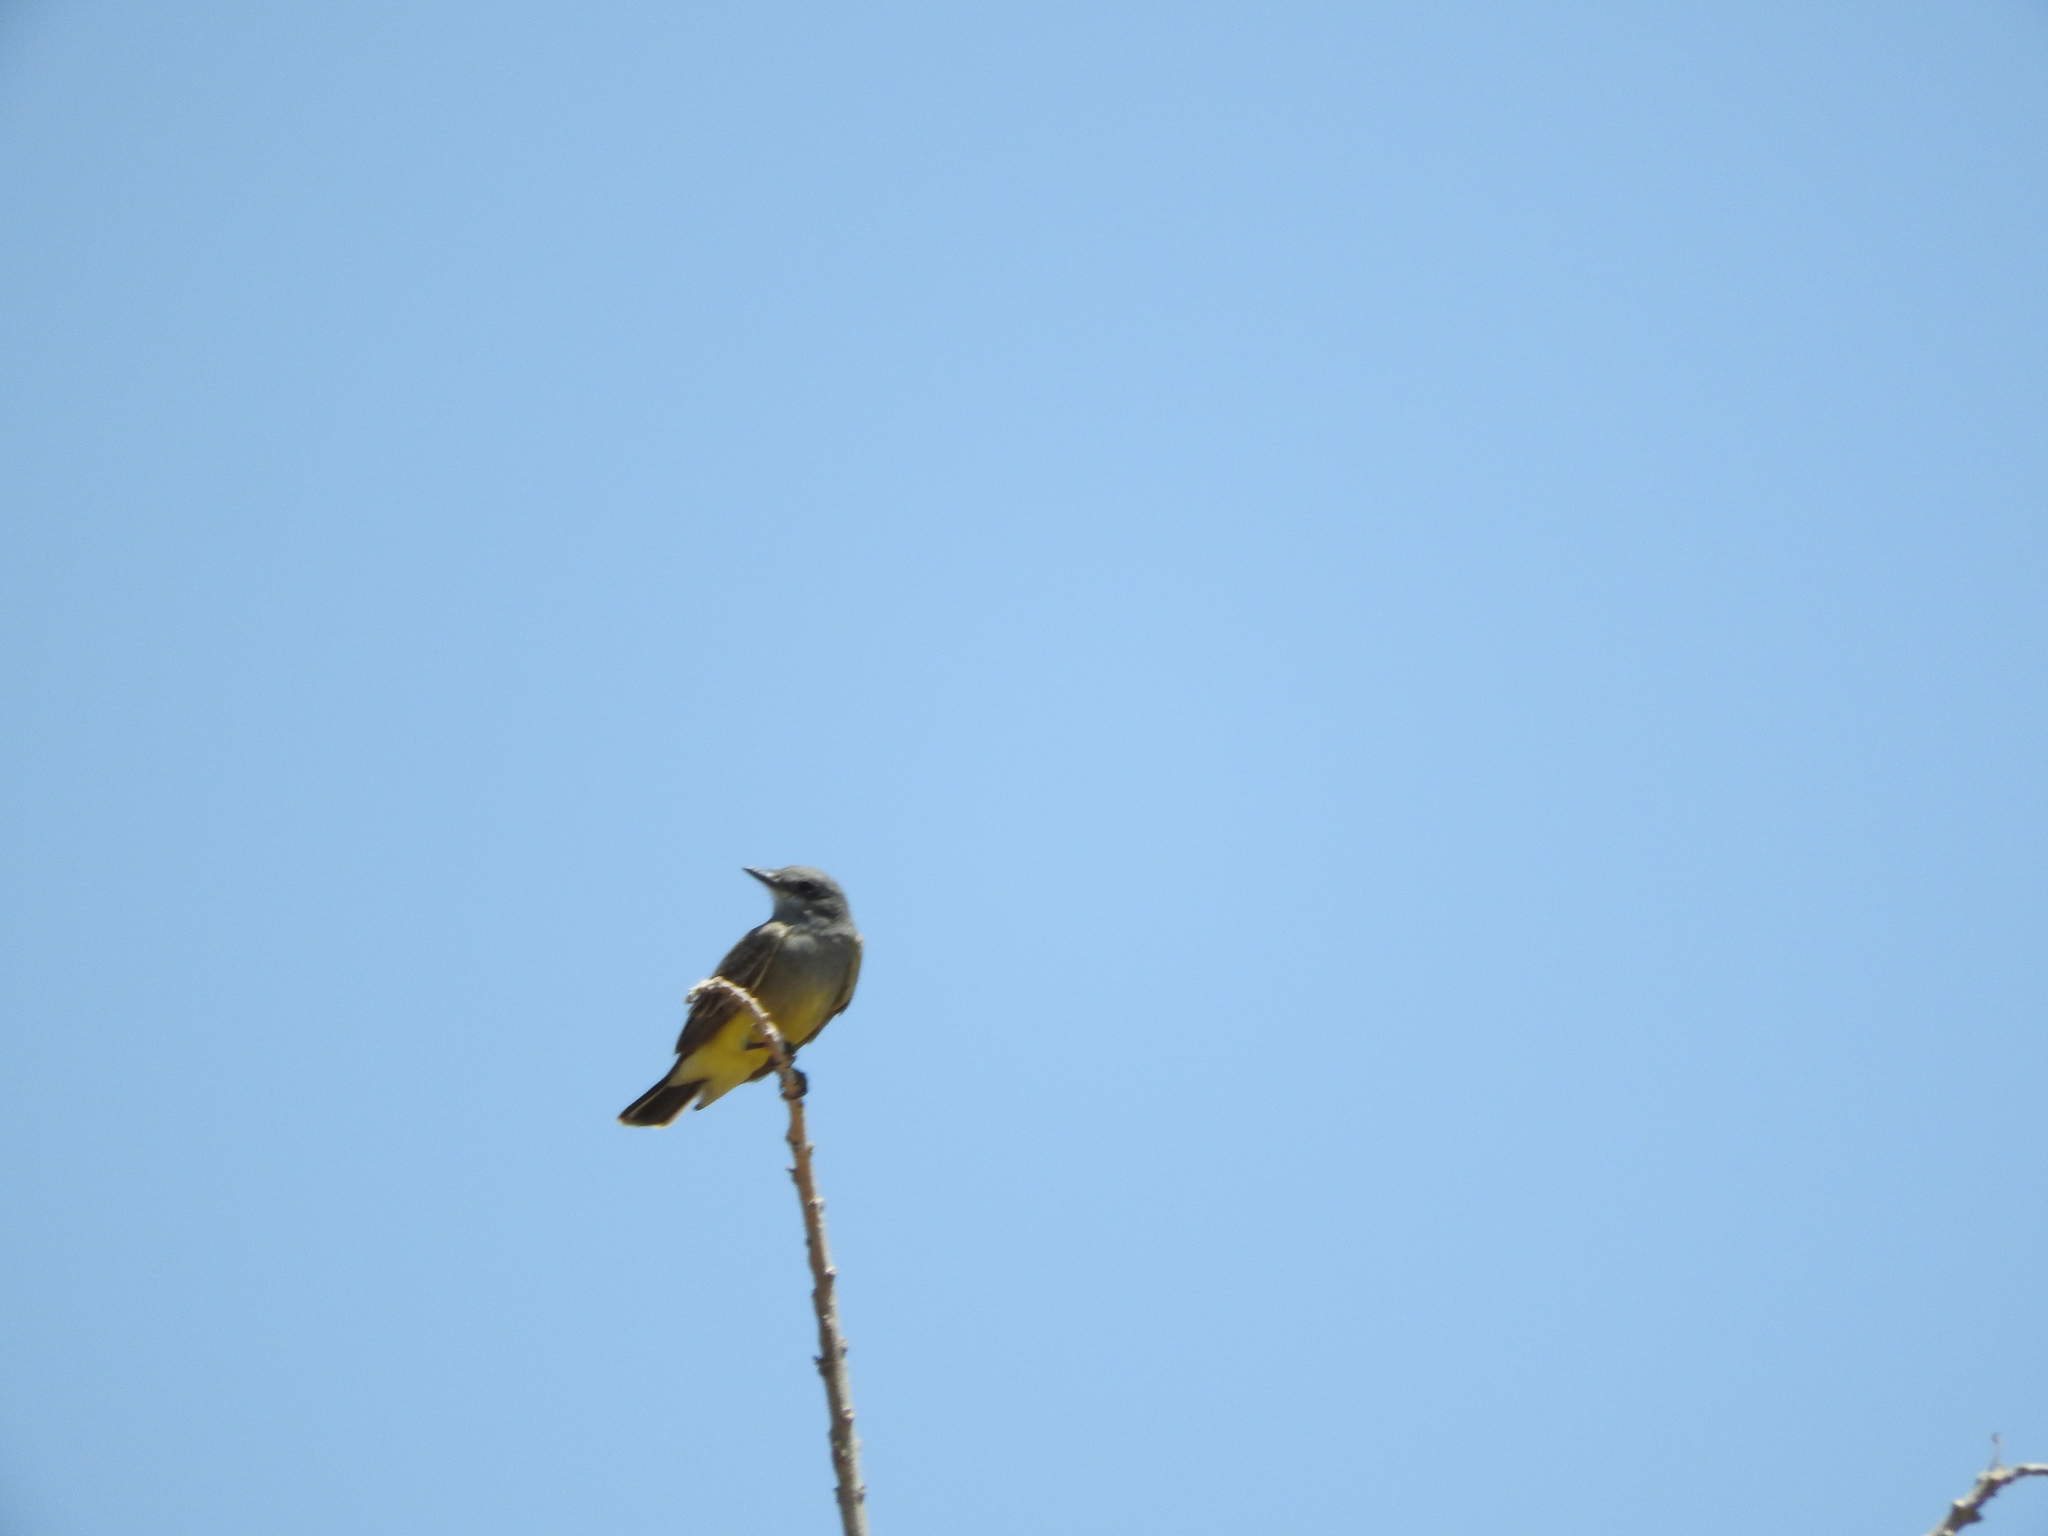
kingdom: Animalia
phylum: Chordata
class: Aves
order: Passeriformes
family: Tyrannidae
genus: Tyrannus
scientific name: Tyrannus vociferans
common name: Cassin's kingbird
